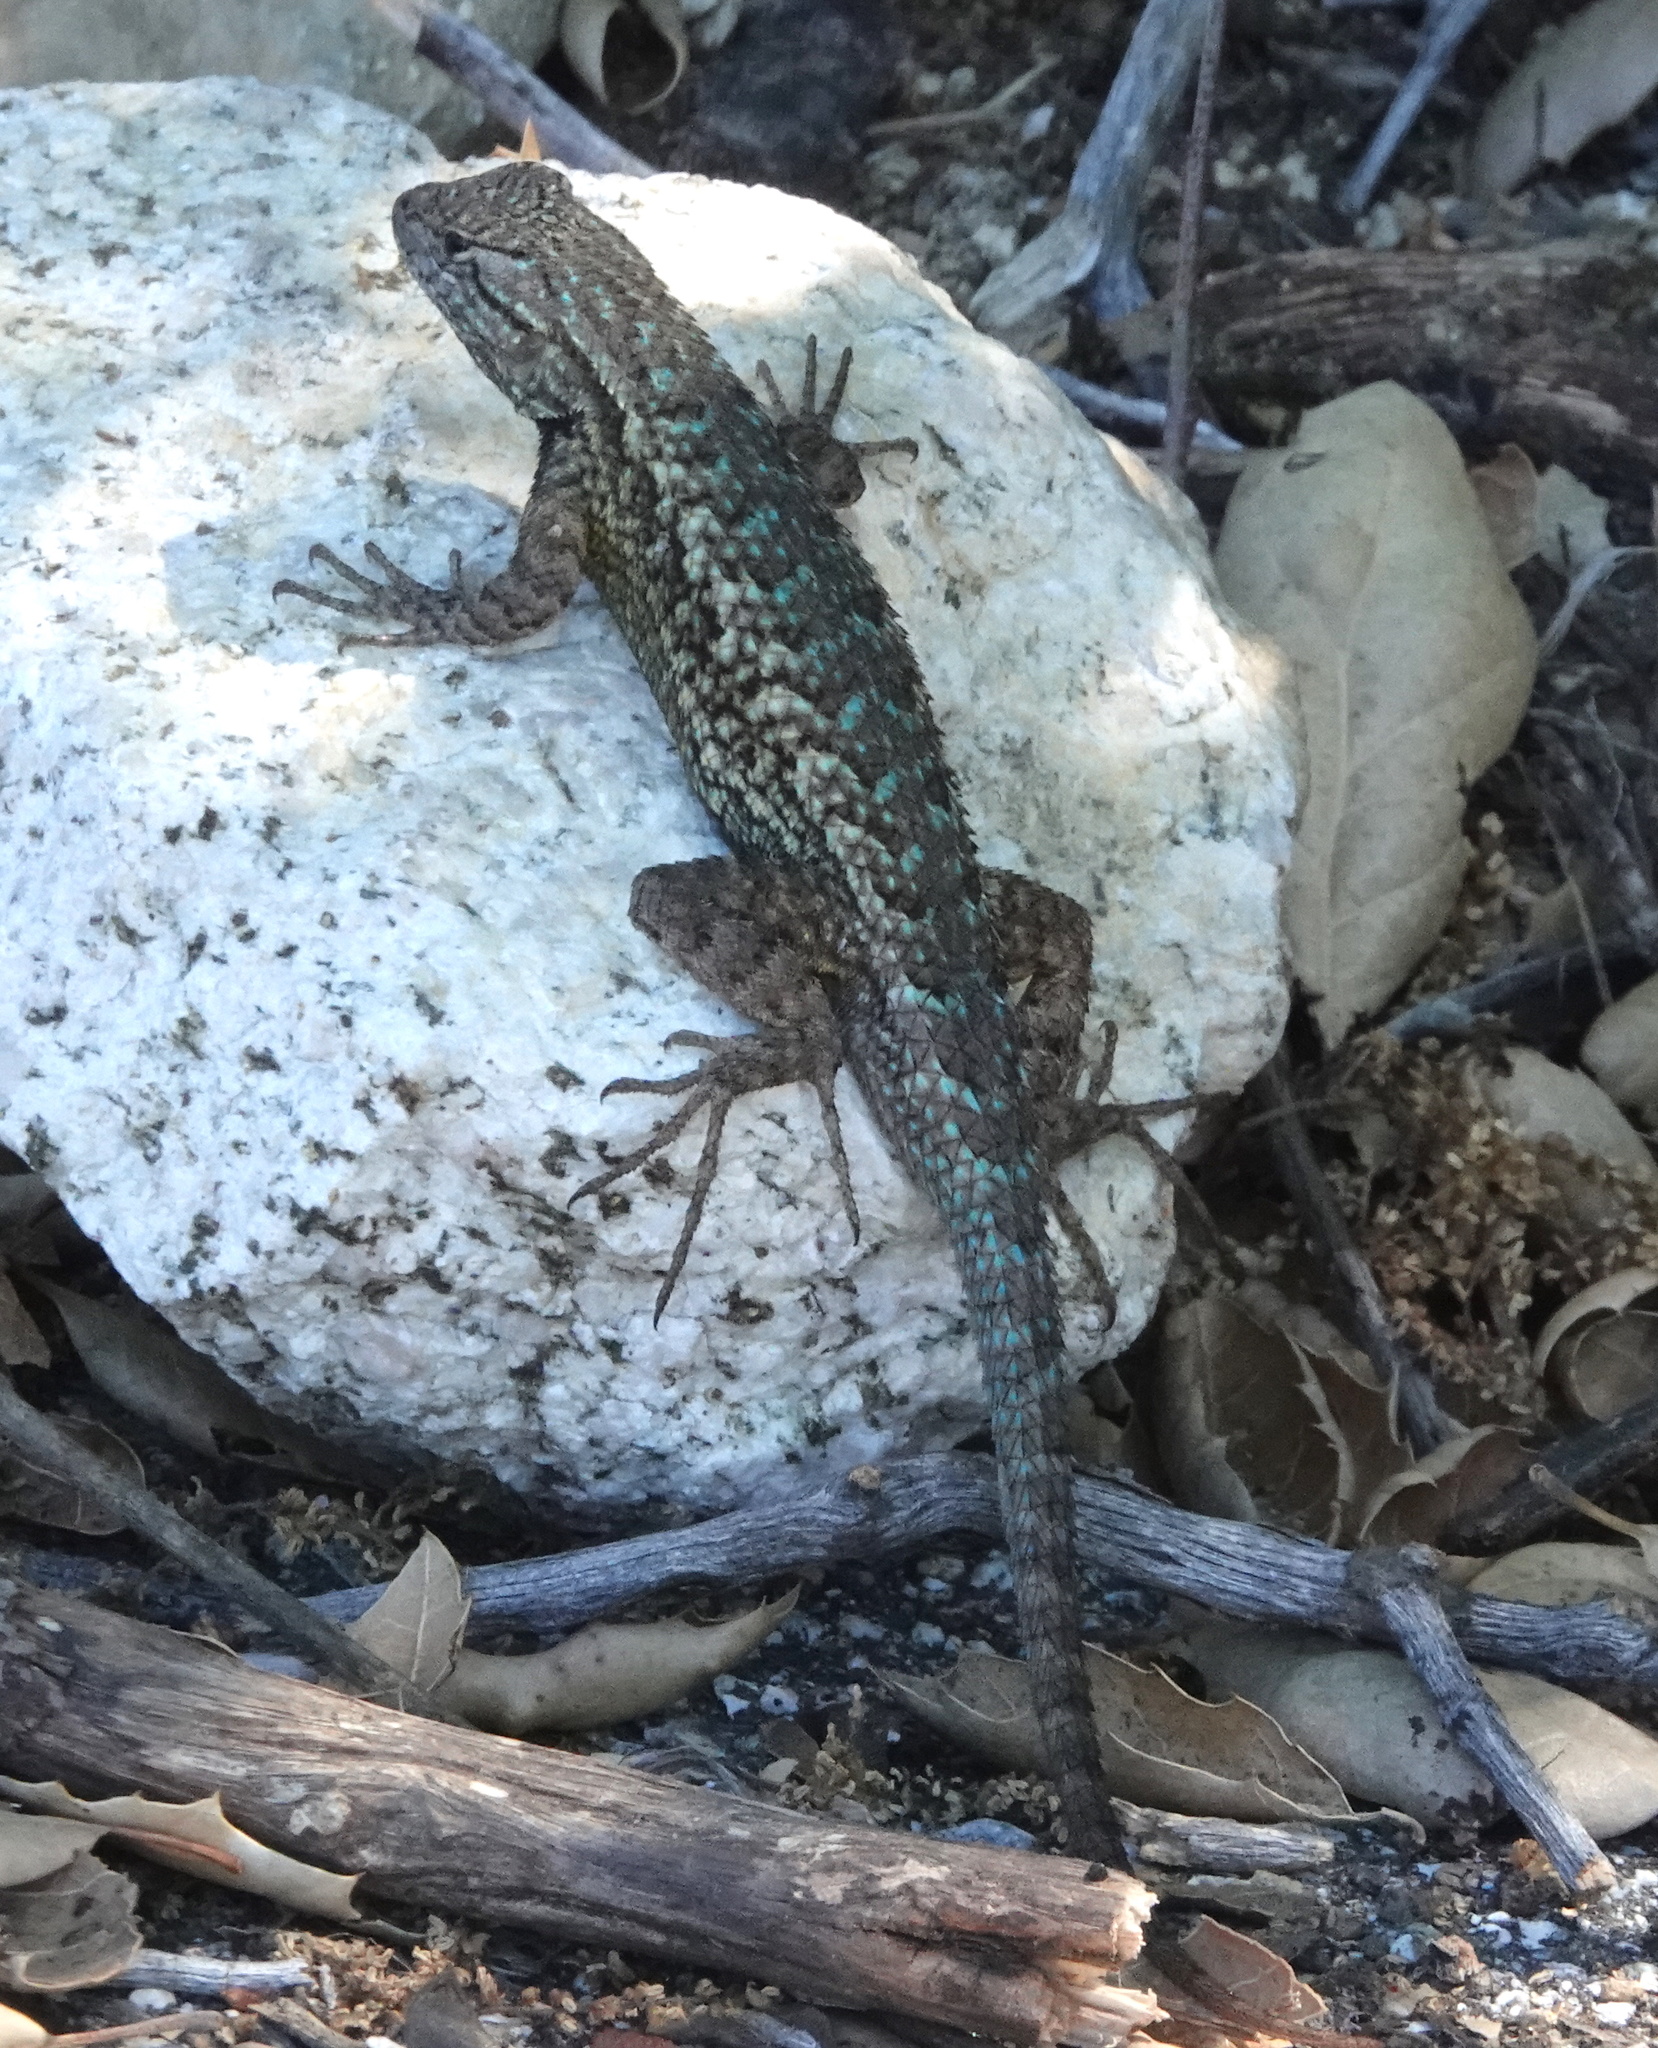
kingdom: Animalia
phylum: Chordata
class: Squamata
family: Phrynosomatidae
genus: Sceloporus
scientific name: Sceloporus occidentalis
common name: Western fence lizard
